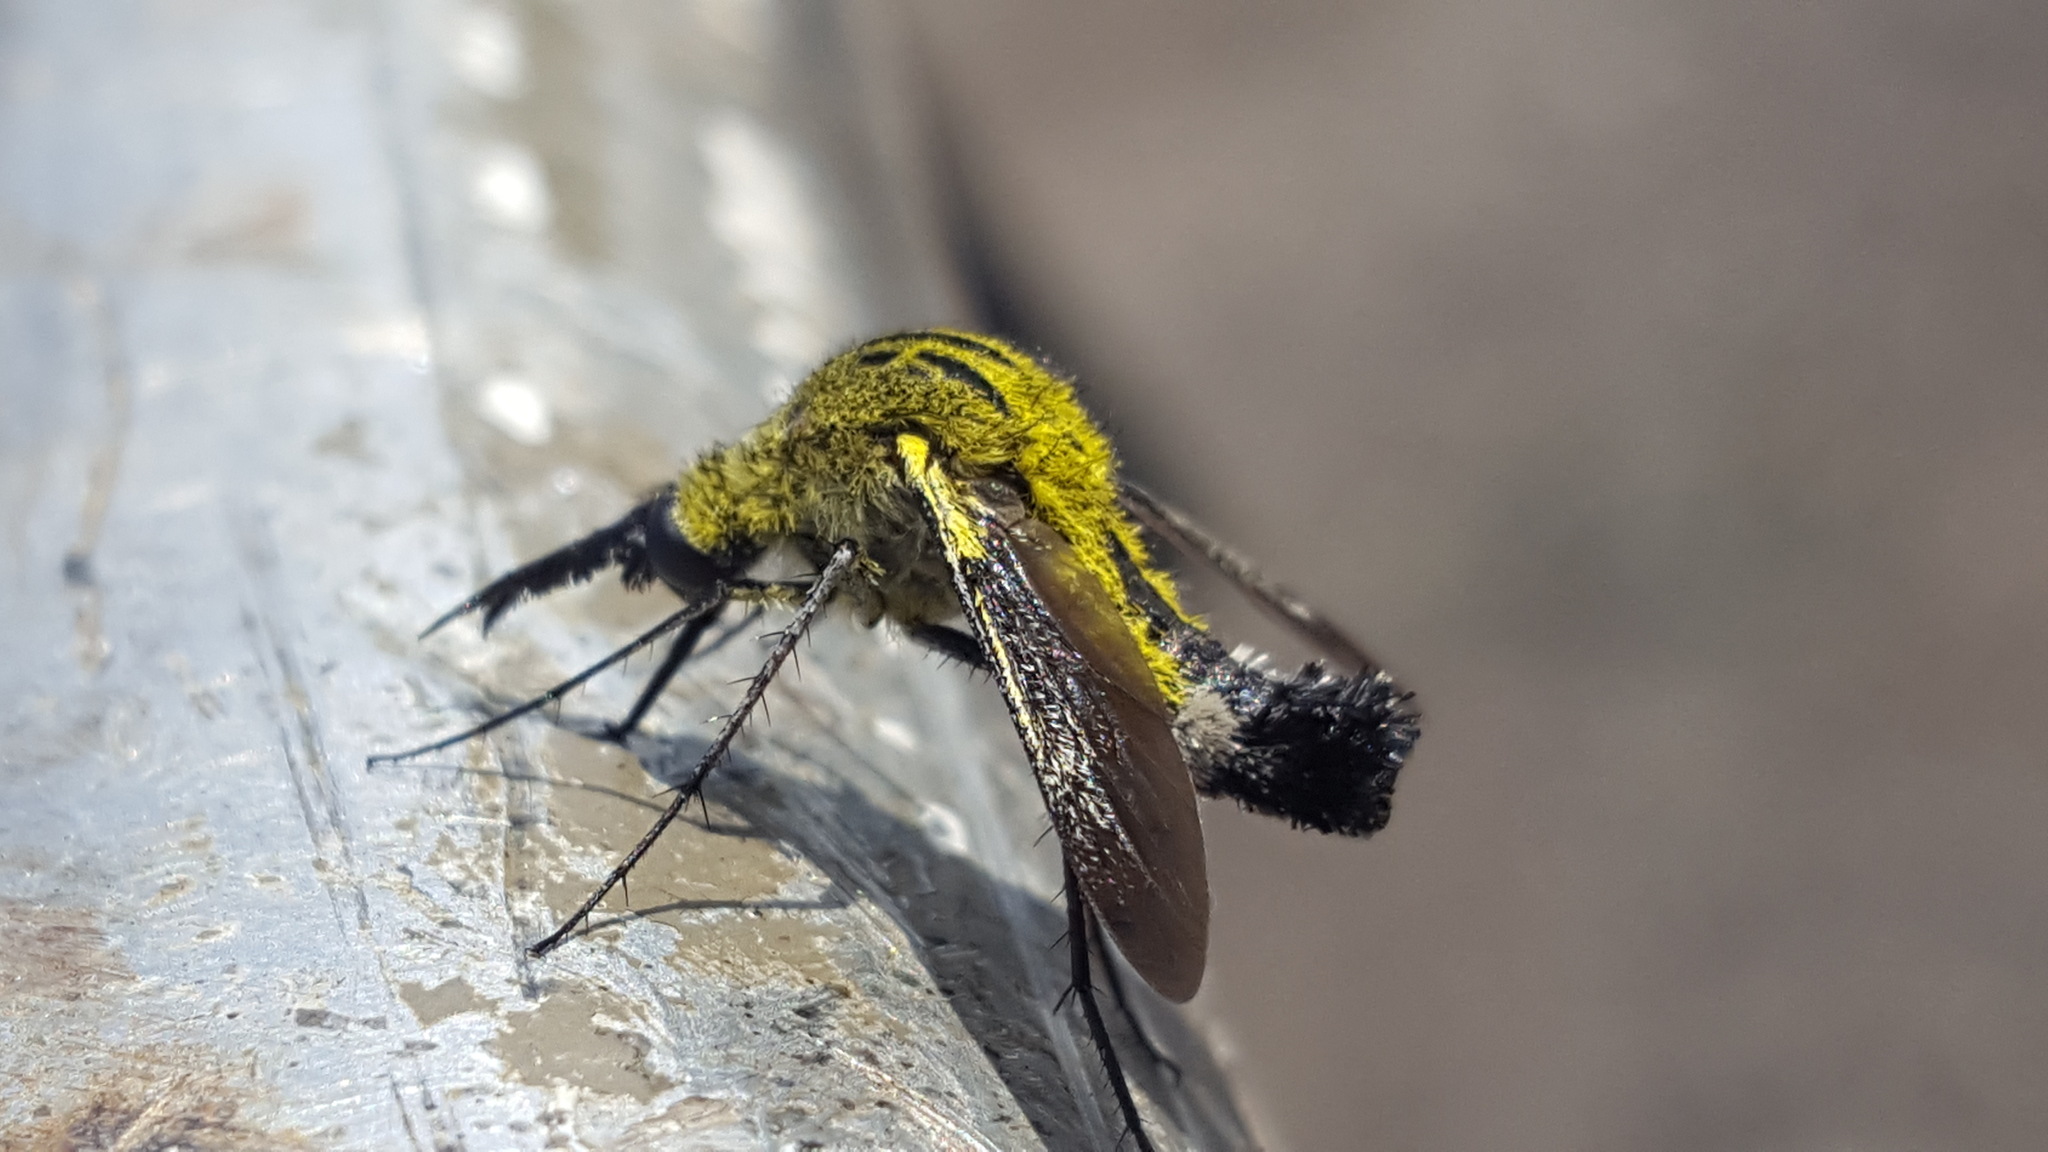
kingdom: Animalia
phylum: Arthropoda
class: Insecta
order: Diptera
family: Bombyliidae
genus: Lepidophora
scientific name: Lepidophora lutea
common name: Hunchback bee fly
